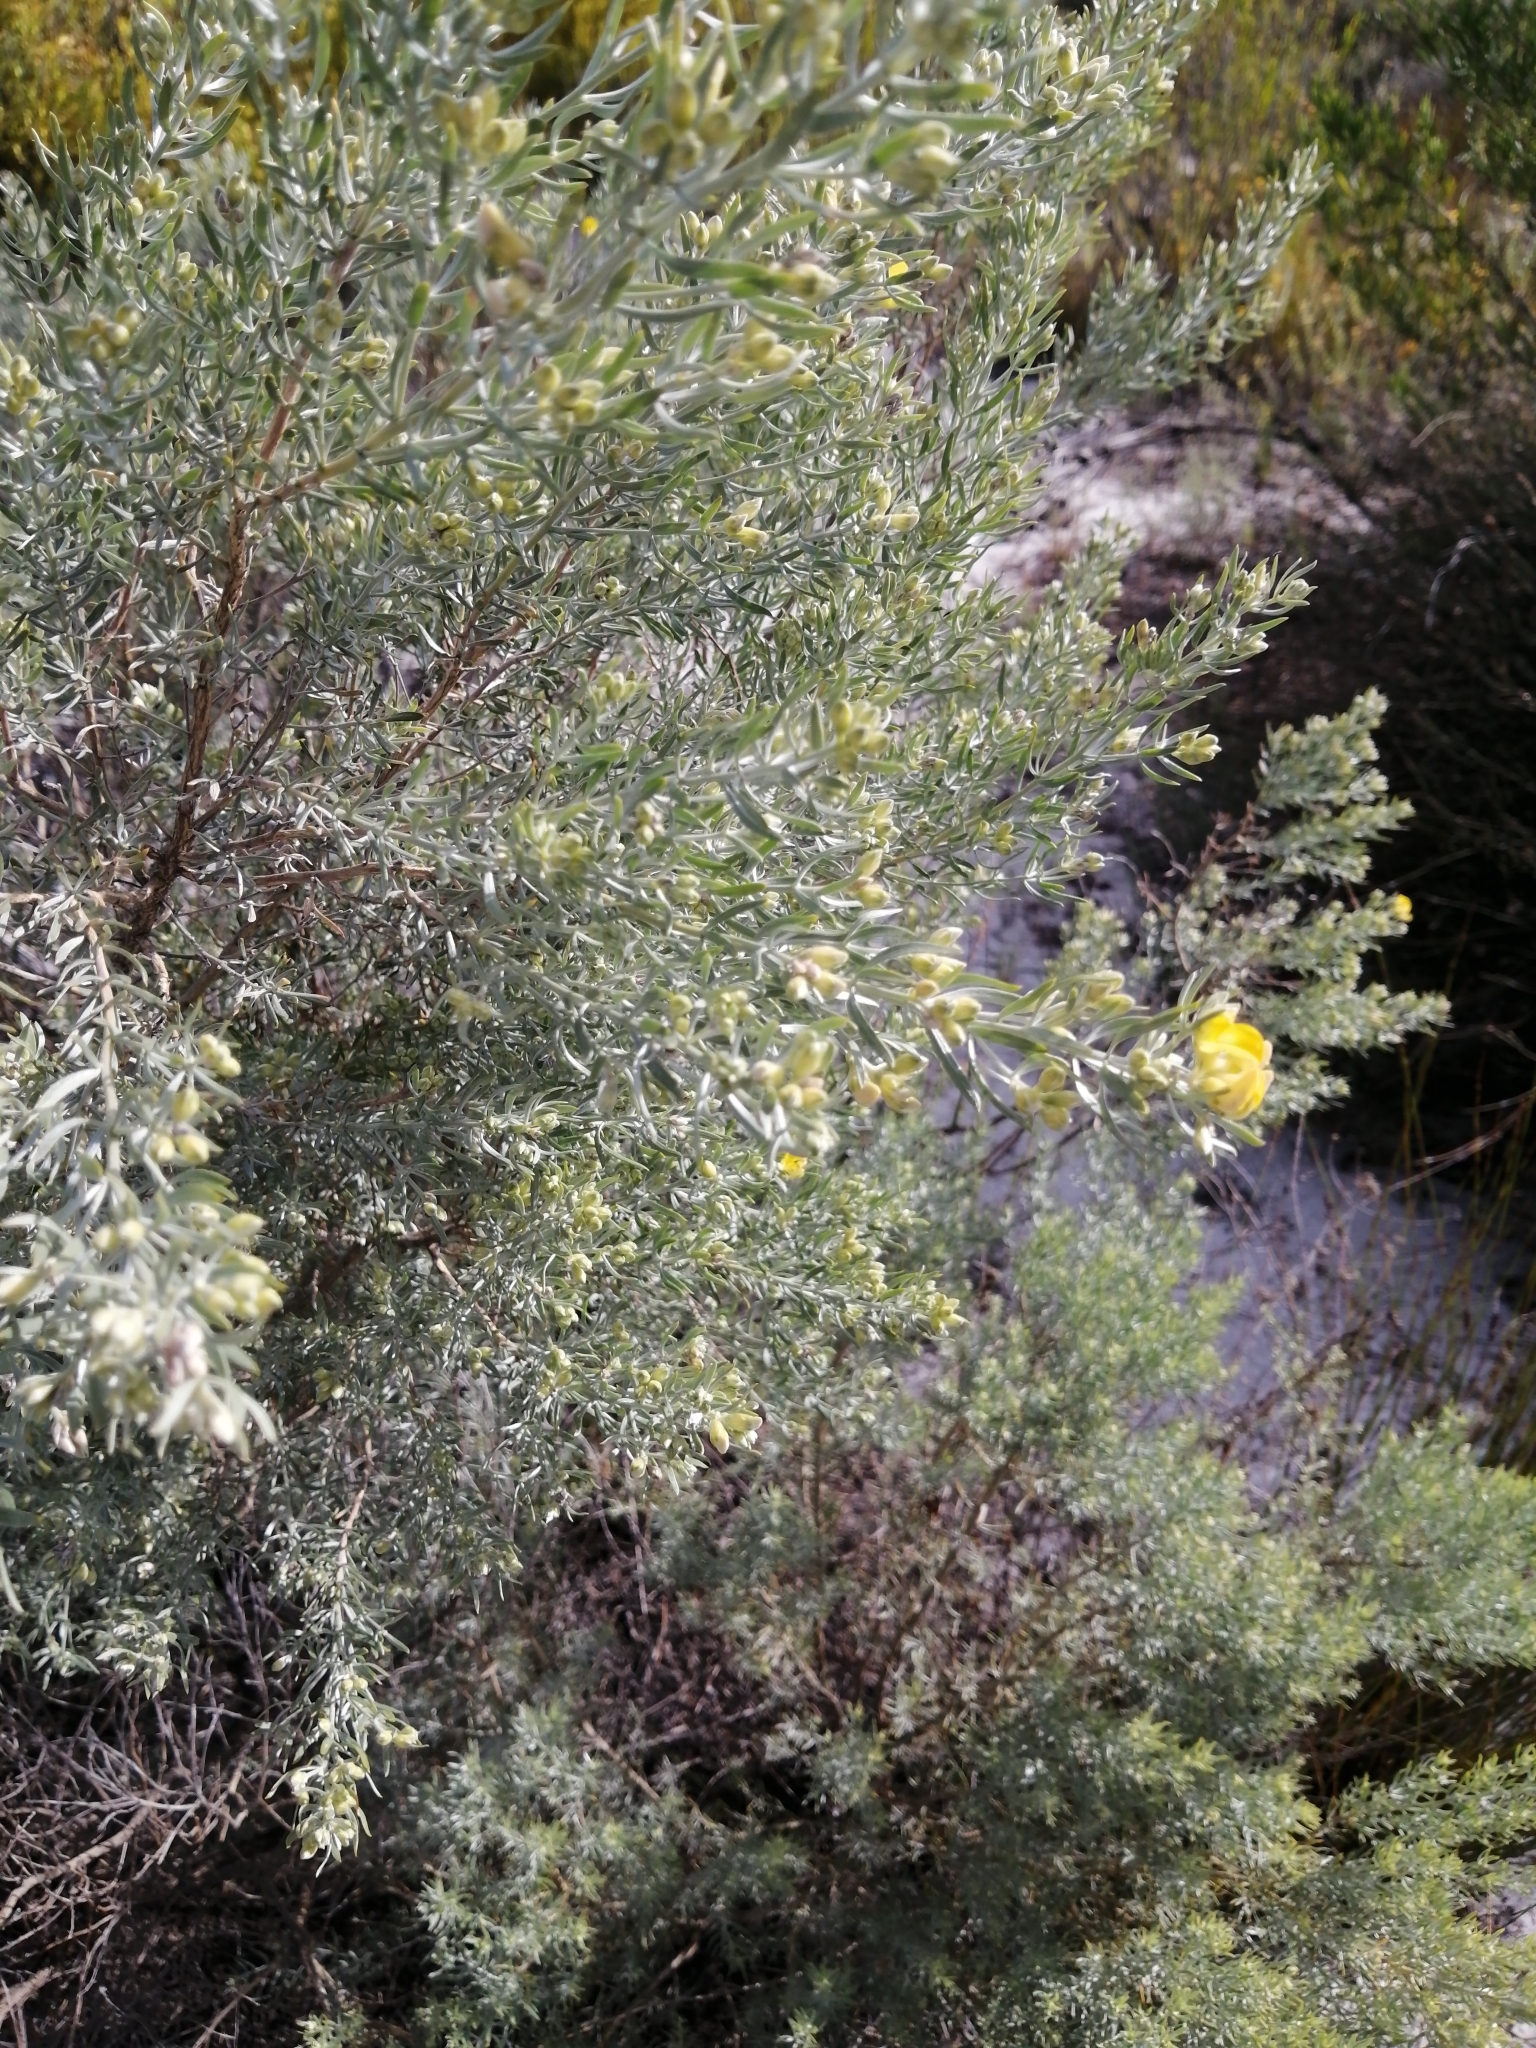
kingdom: Plantae
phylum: Tracheophyta
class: Magnoliopsida
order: Fabales
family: Fabaceae
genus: Aspalathus
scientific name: Aspalathus rugosa
